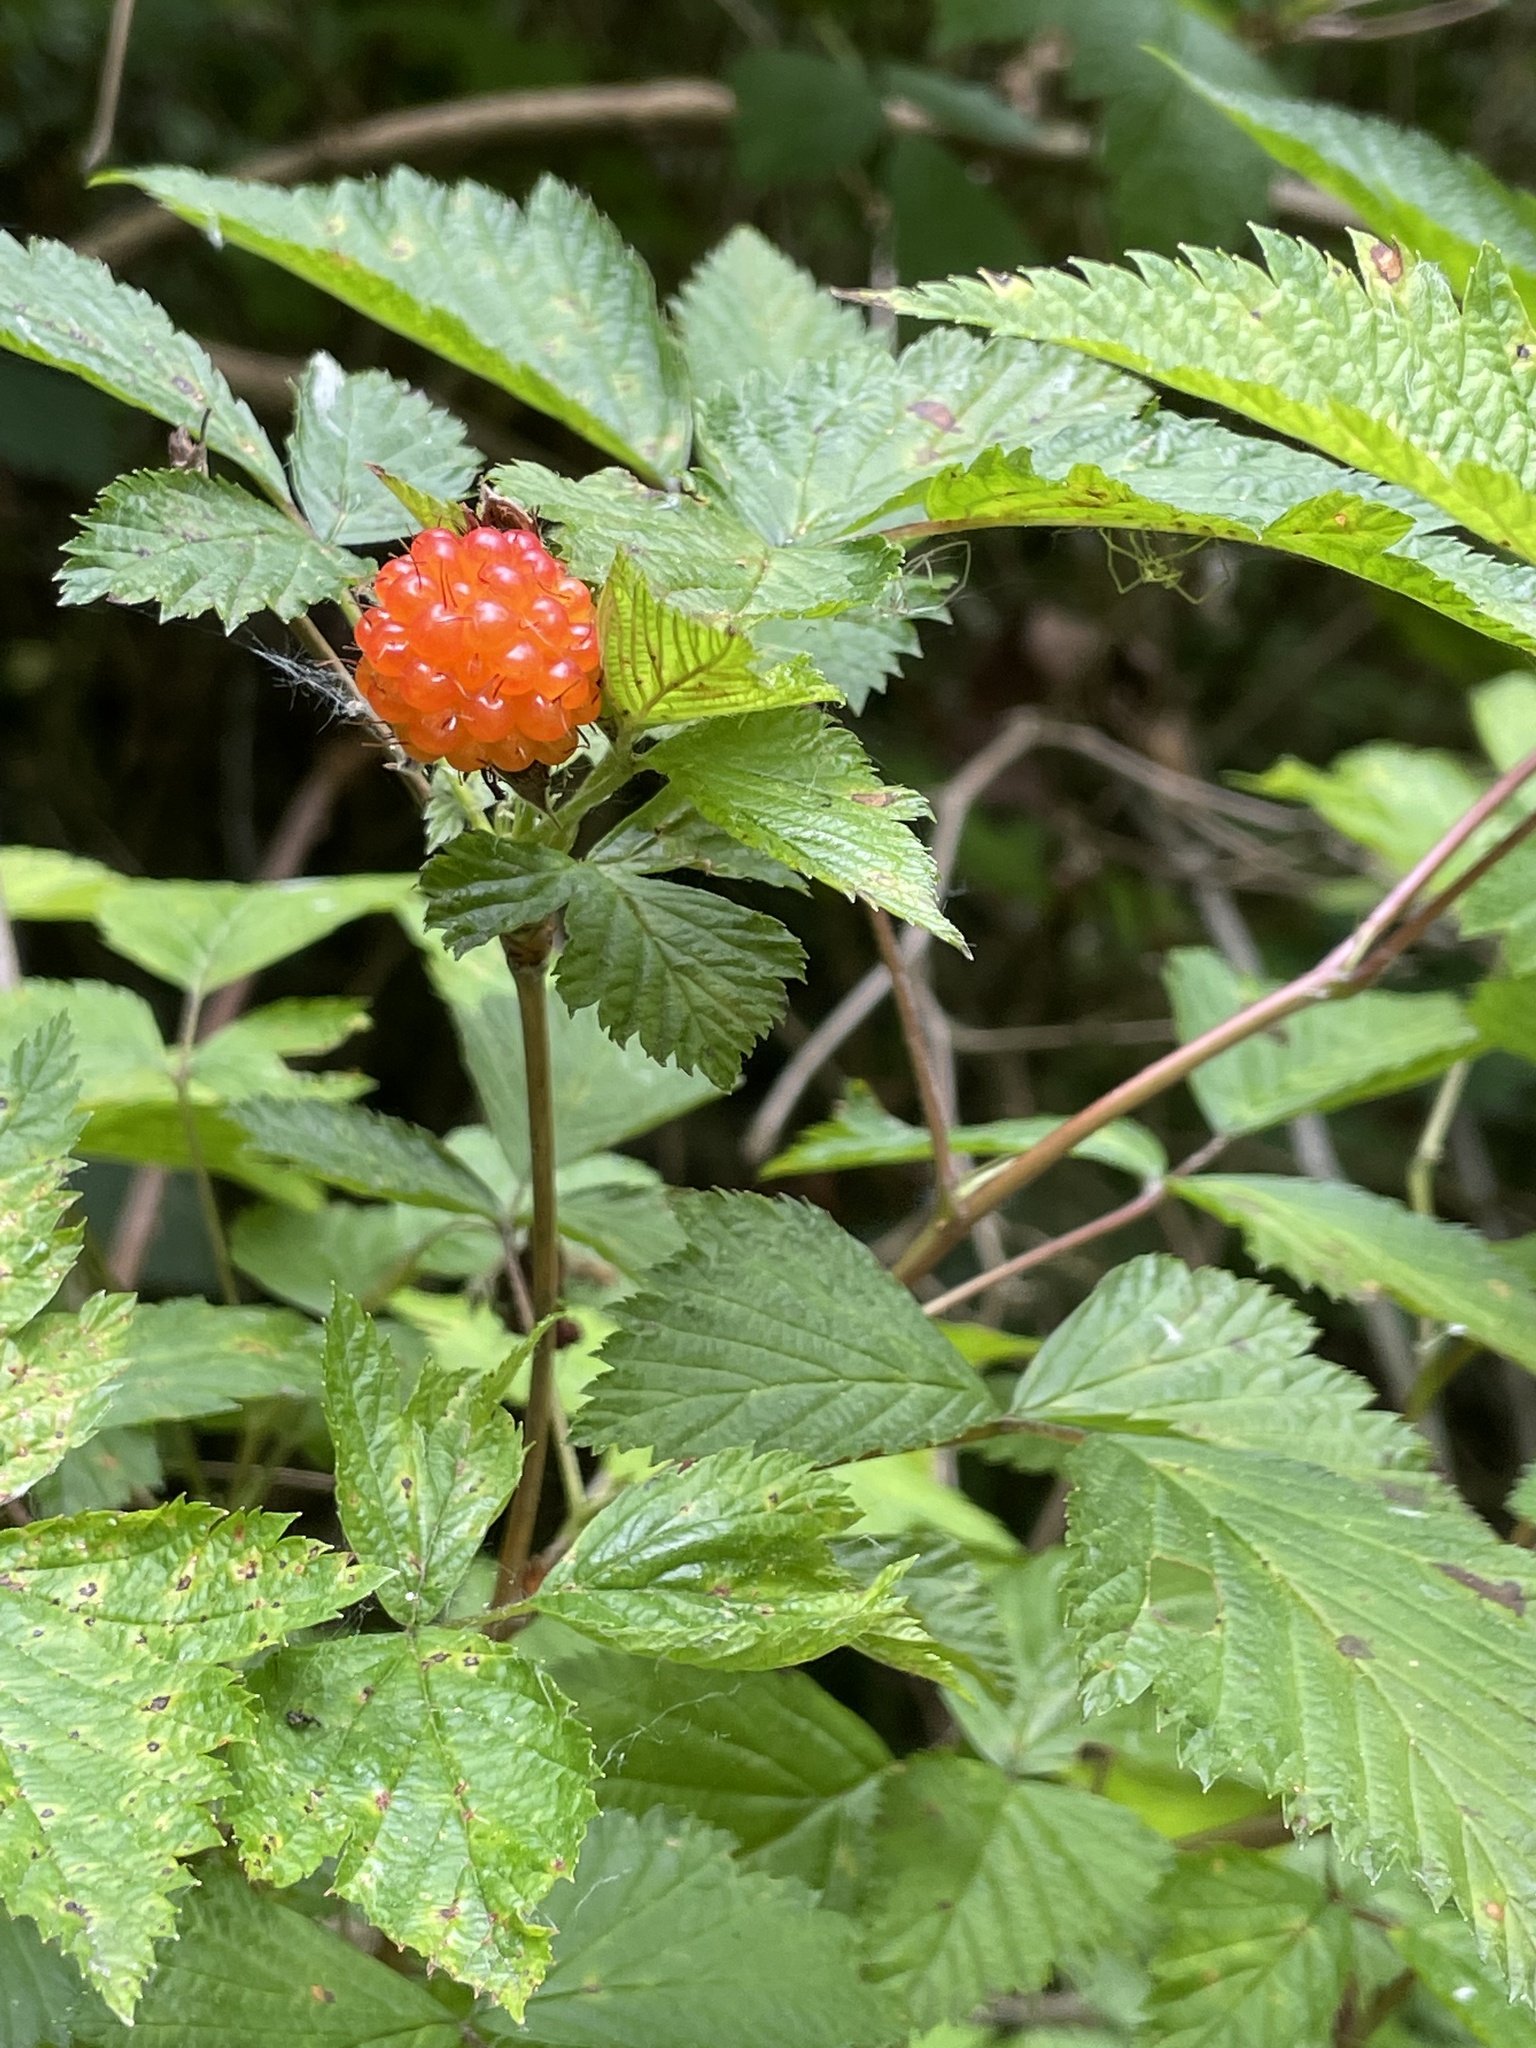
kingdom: Plantae
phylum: Tracheophyta
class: Magnoliopsida
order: Rosales
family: Rosaceae
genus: Rubus
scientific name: Rubus spectabilis
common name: Salmonberry
